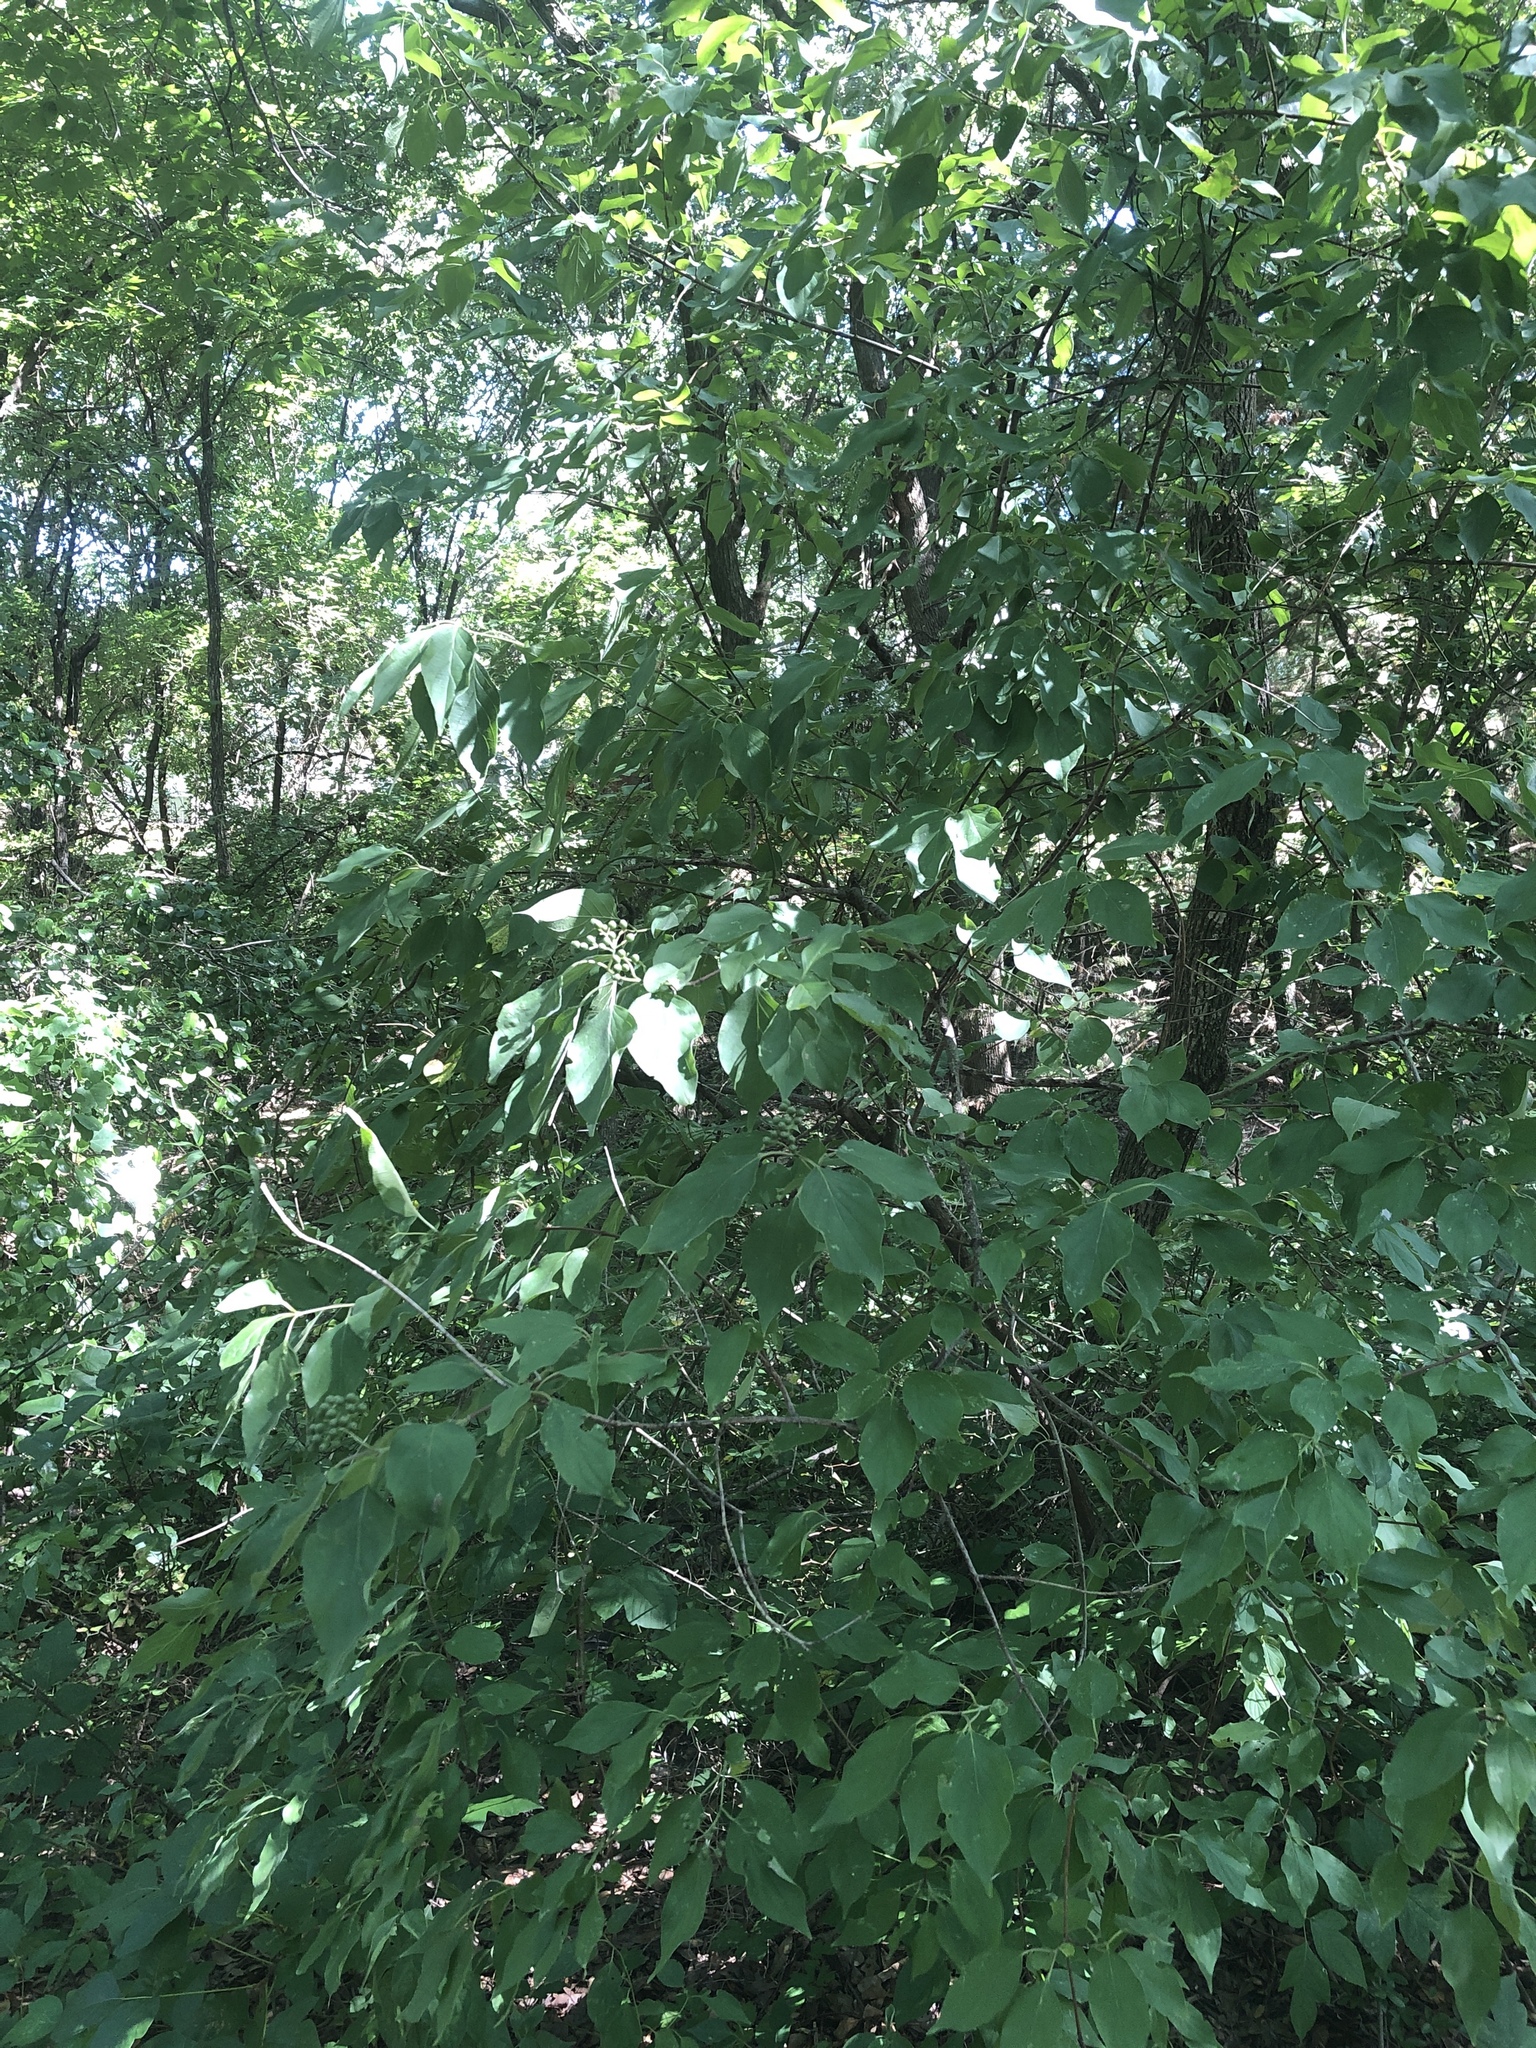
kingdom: Plantae
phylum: Tracheophyta
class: Magnoliopsida
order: Cornales
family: Cornaceae
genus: Cornus
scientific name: Cornus drummondii
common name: Rough-leaf dogwood
